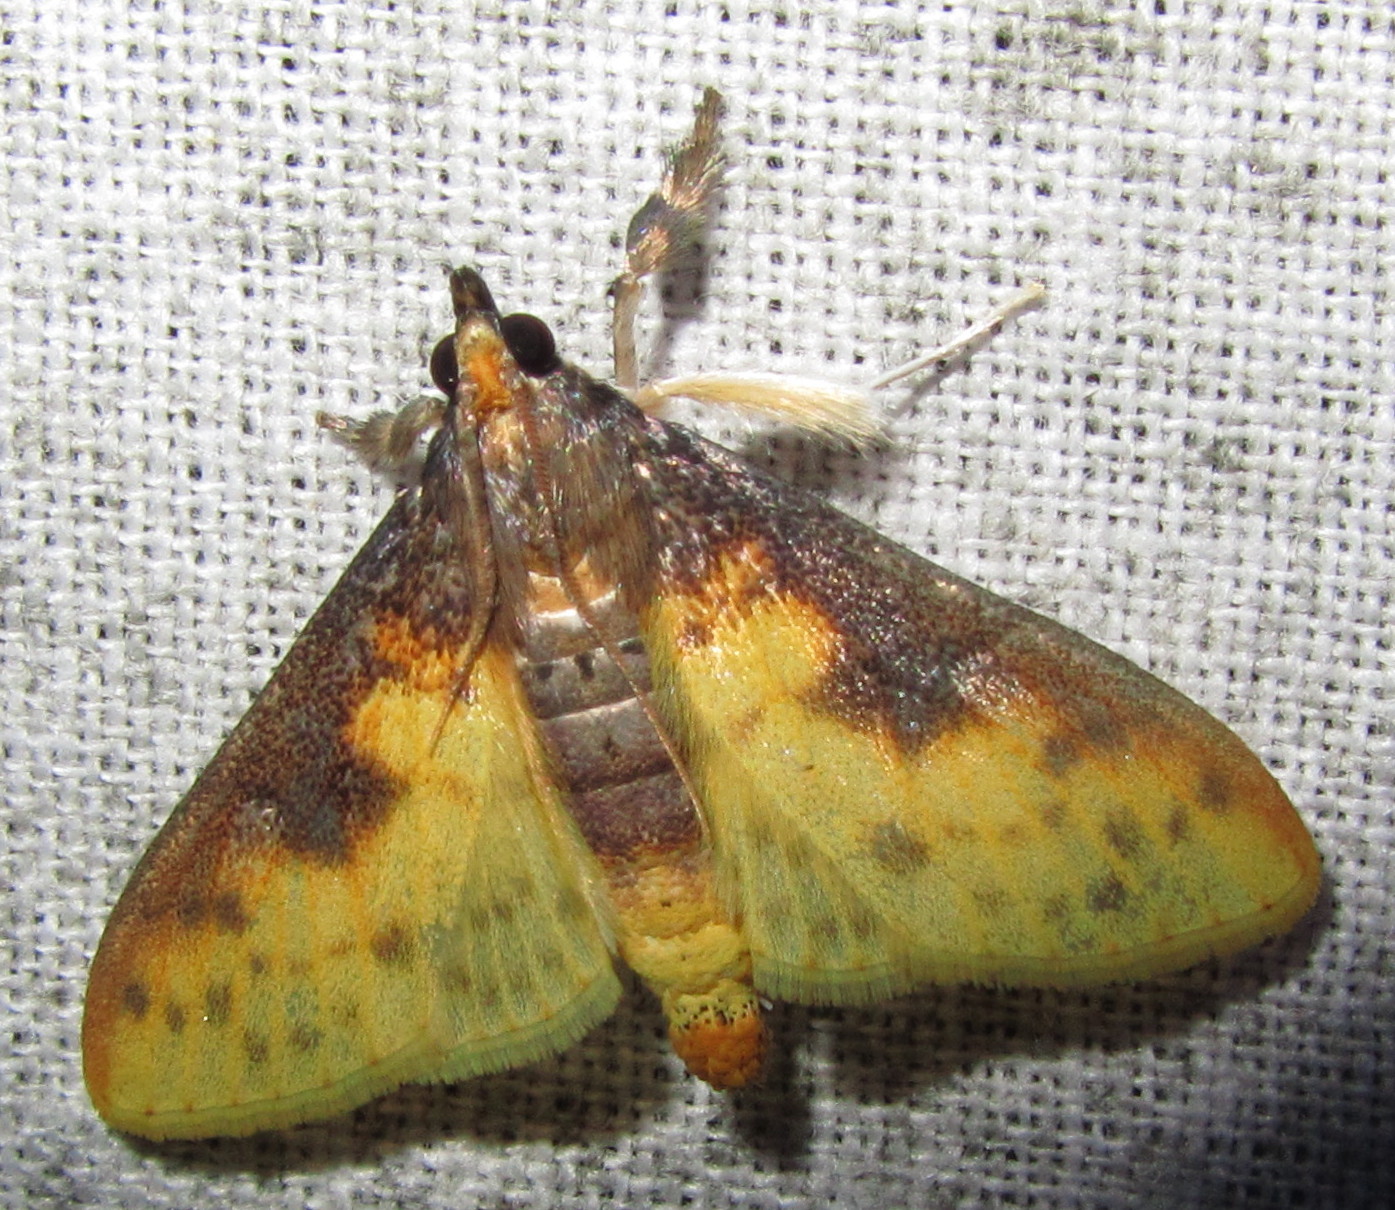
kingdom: Animalia
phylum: Arthropoda
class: Insecta
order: Lepidoptera
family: Crambidae
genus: Polygrammodes
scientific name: Polygrammodes sabelialis
